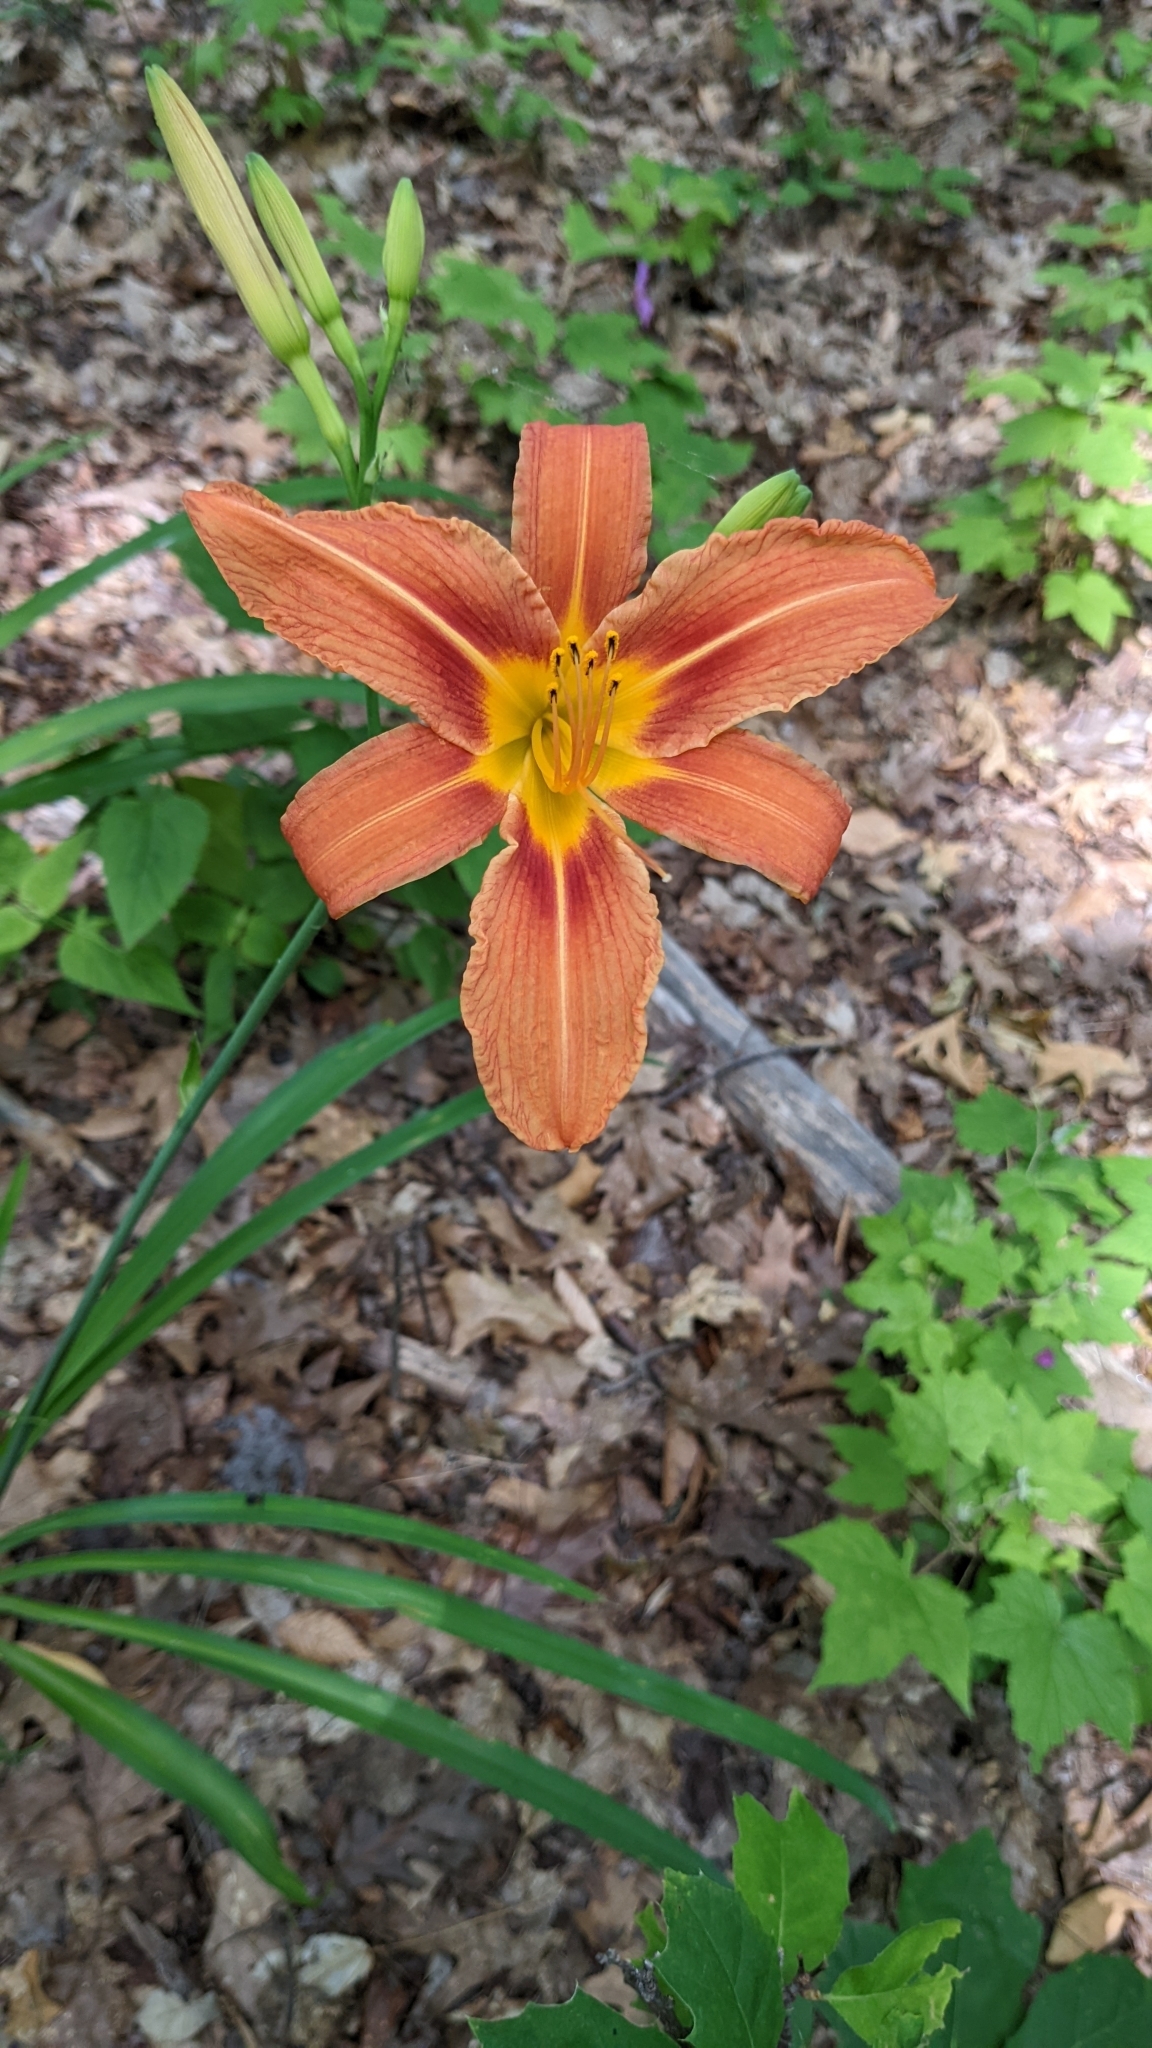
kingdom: Plantae
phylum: Tracheophyta
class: Liliopsida
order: Asparagales
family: Asphodelaceae
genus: Hemerocallis
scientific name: Hemerocallis fulva
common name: Orange day-lily
